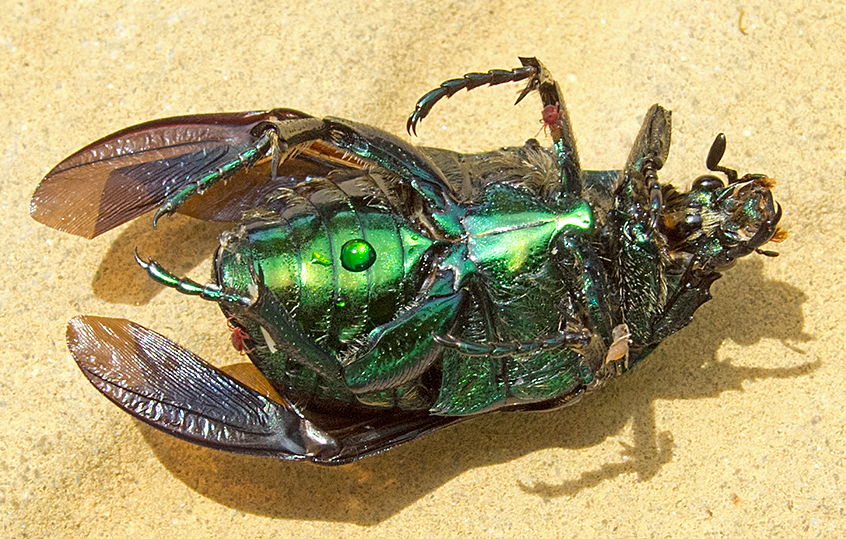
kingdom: Animalia
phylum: Arthropoda
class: Insecta
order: Coleoptera
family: Scarabaeidae
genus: Protaetia
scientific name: Protaetia affinis
